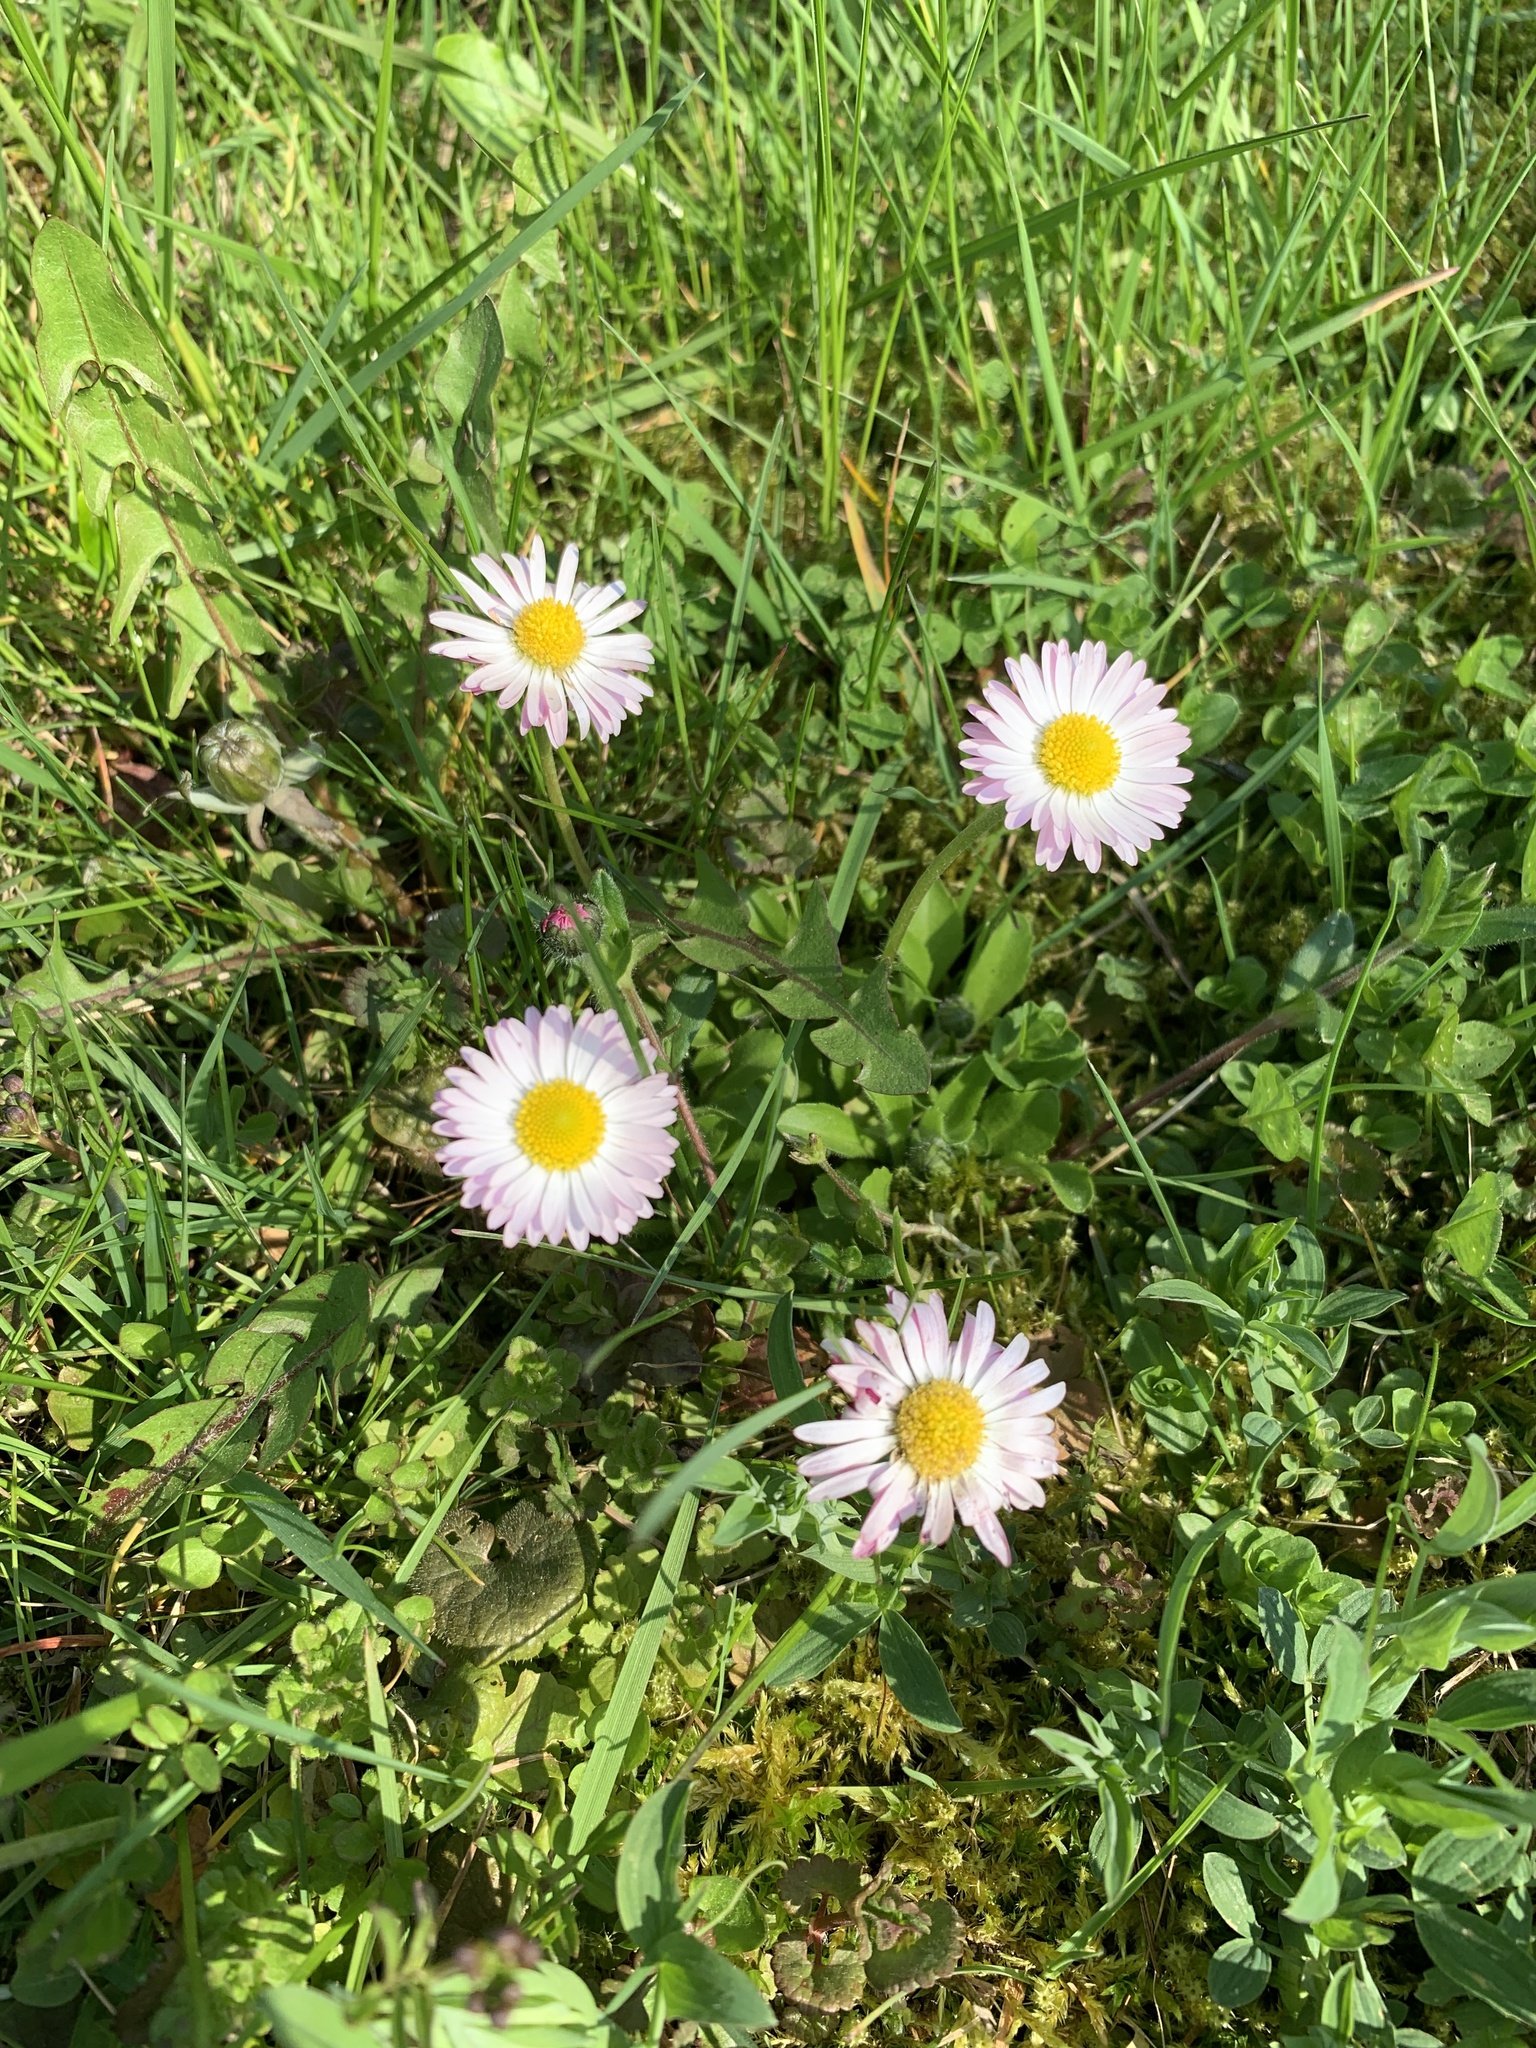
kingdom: Plantae
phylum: Tracheophyta
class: Magnoliopsida
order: Asterales
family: Asteraceae
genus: Bellis
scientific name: Bellis perennis
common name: Lawndaisy
